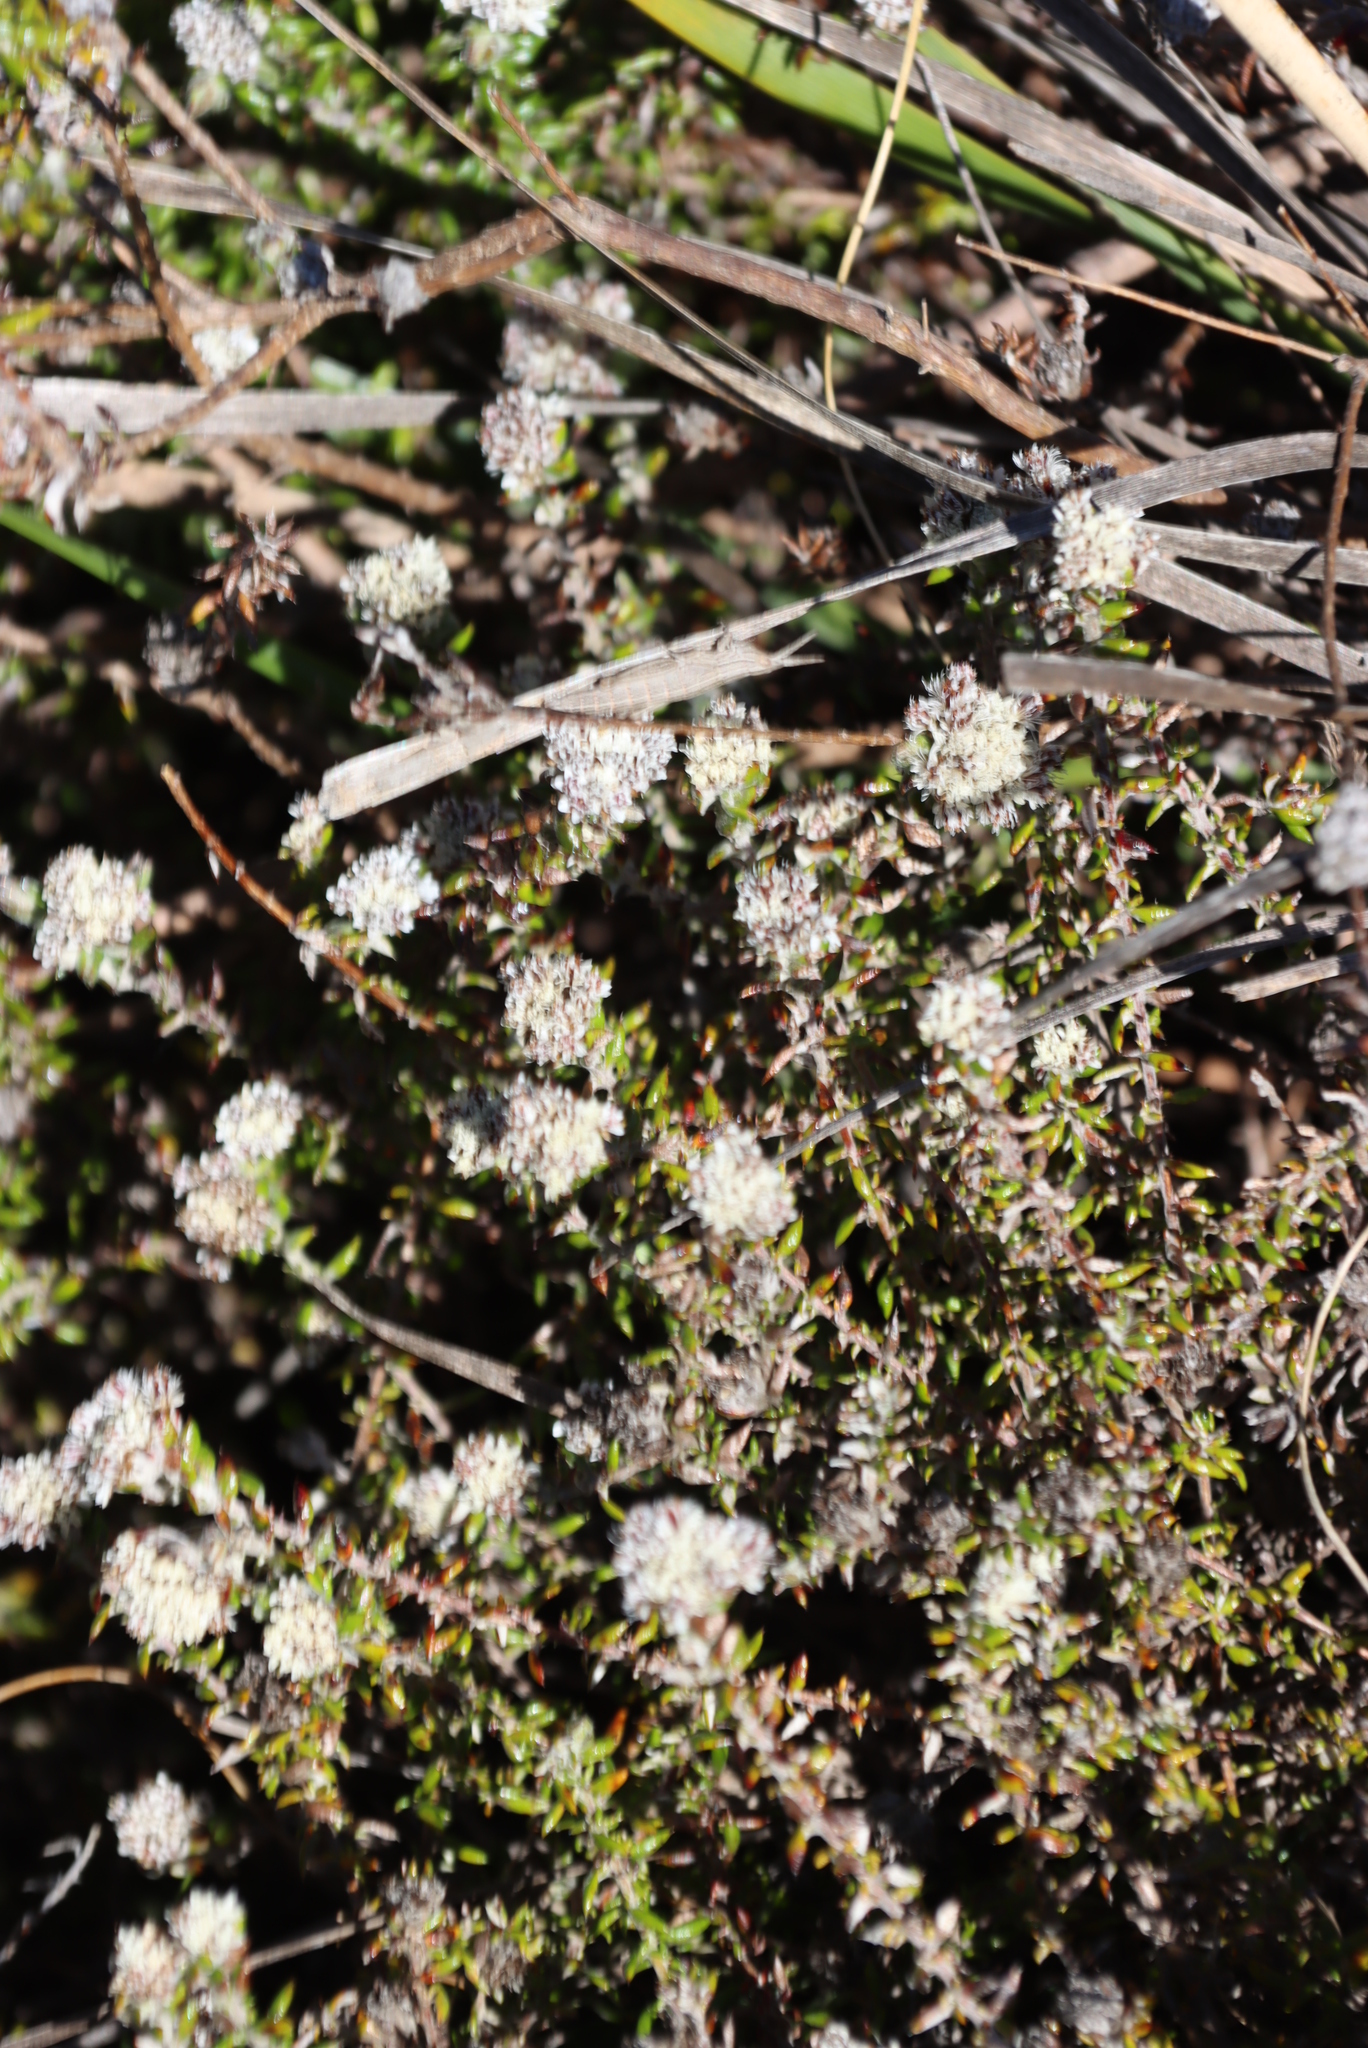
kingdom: Plantae
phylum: Tracheophyta
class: Magnoliopsida
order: Asterales
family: Asteraceae
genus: Metalasia
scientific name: Metalasia divergens
